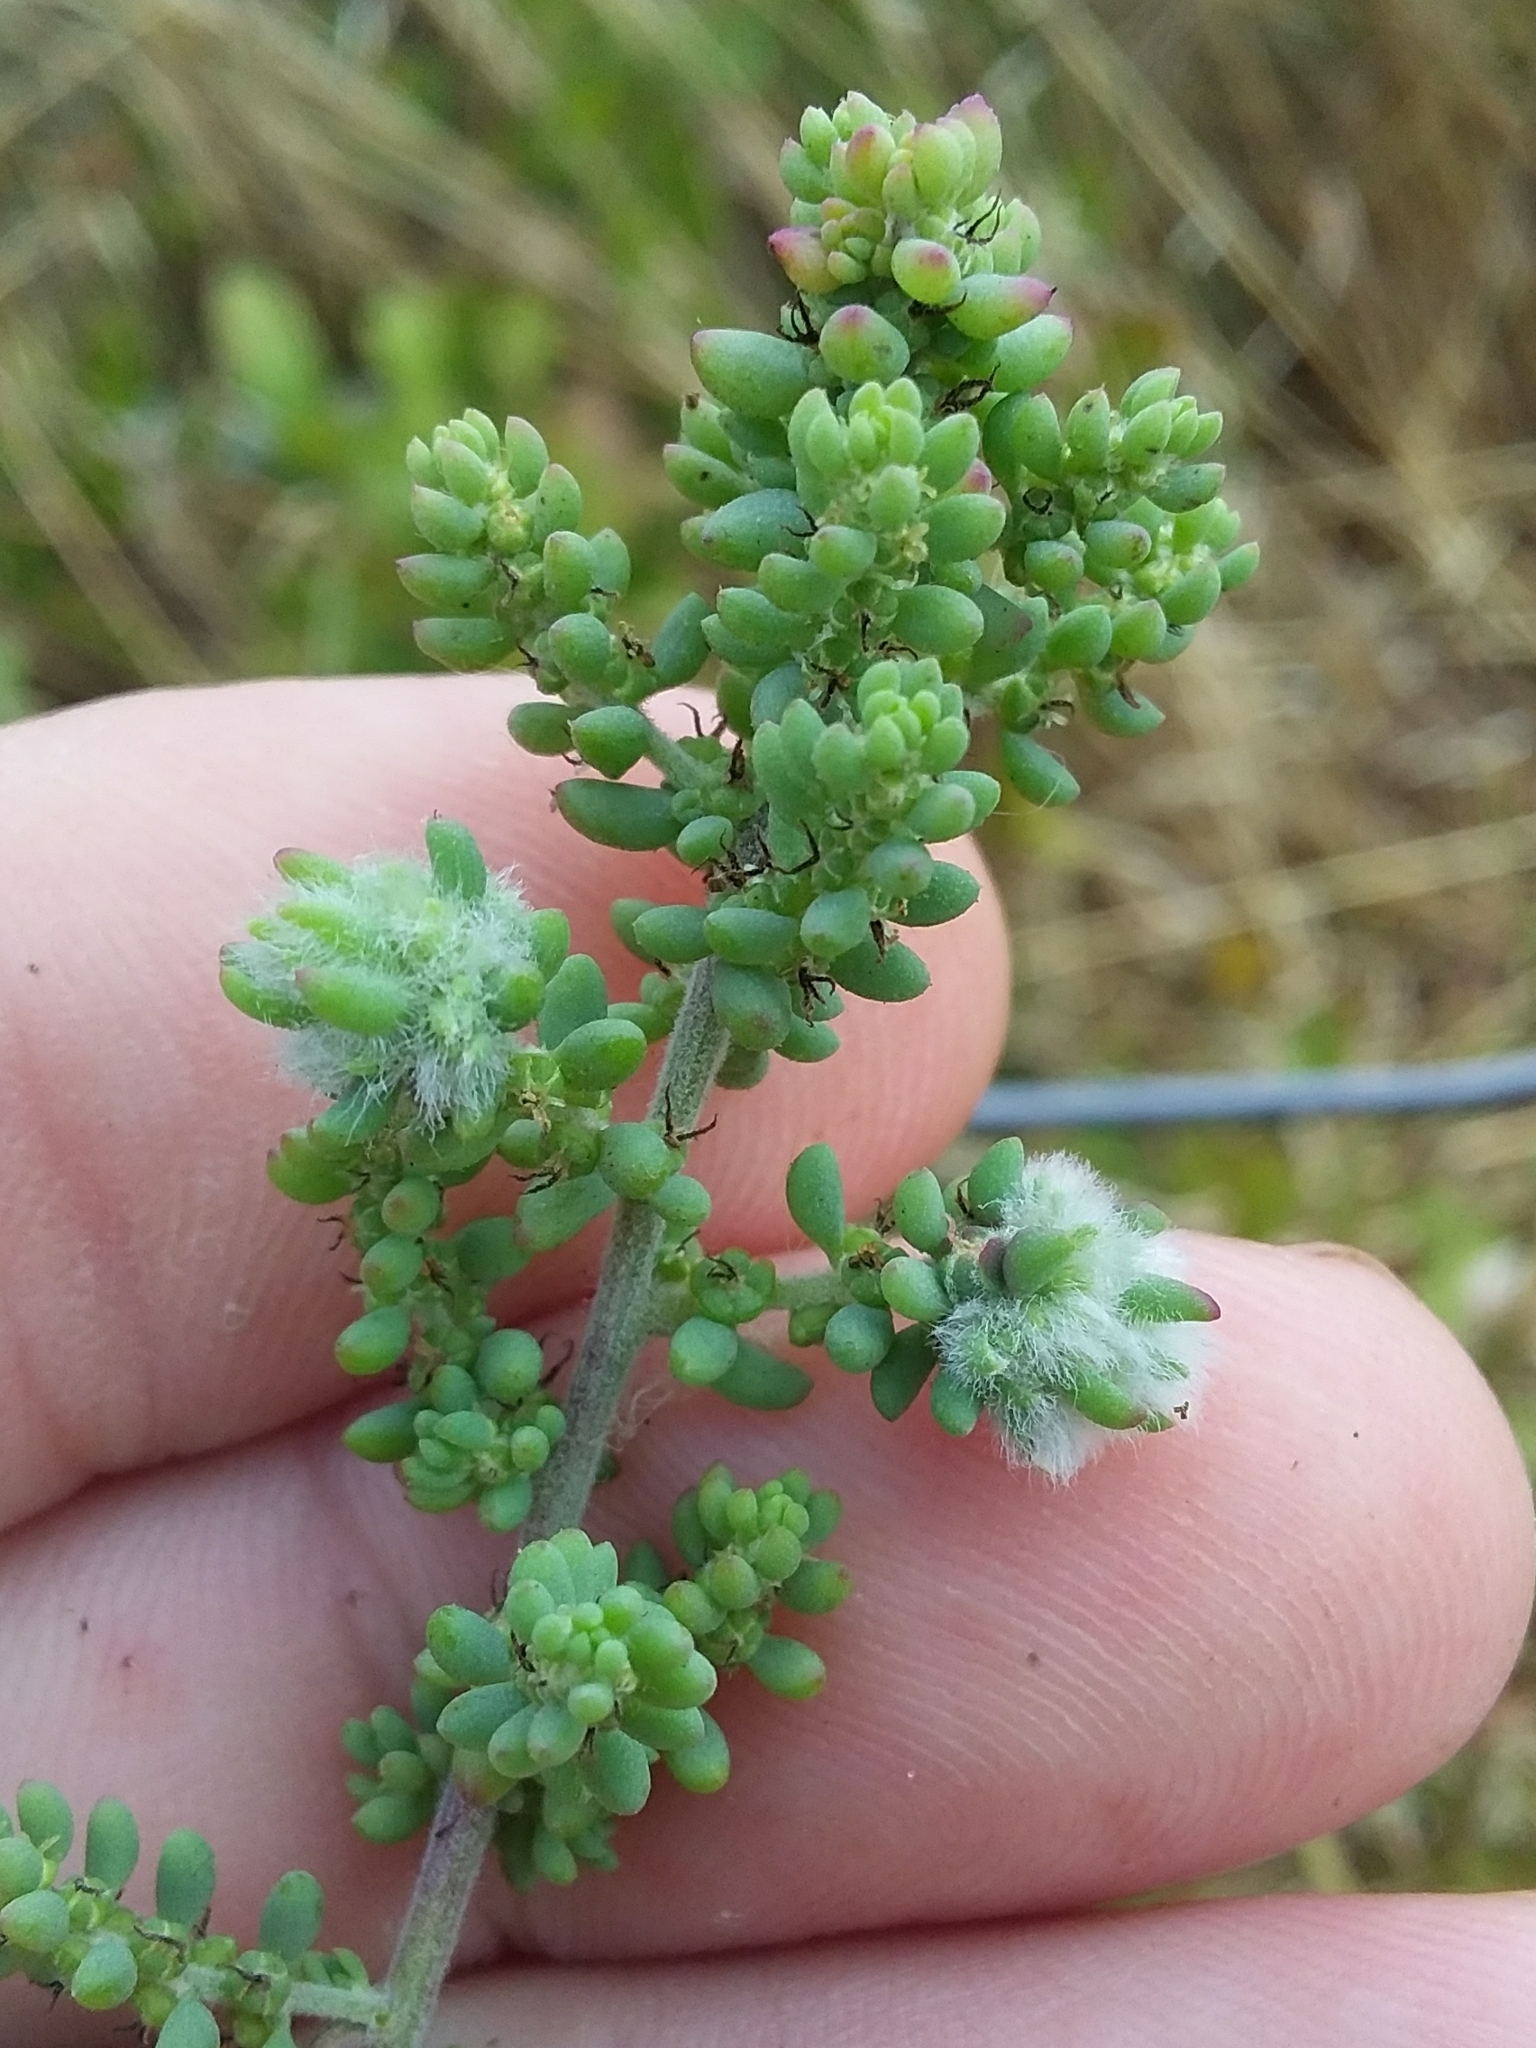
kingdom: Animalia
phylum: Arthropoda
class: Insecta
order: Diptera
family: Cecidomyiidae
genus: Dactylasioptera
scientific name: Dactylasioptera milnae
